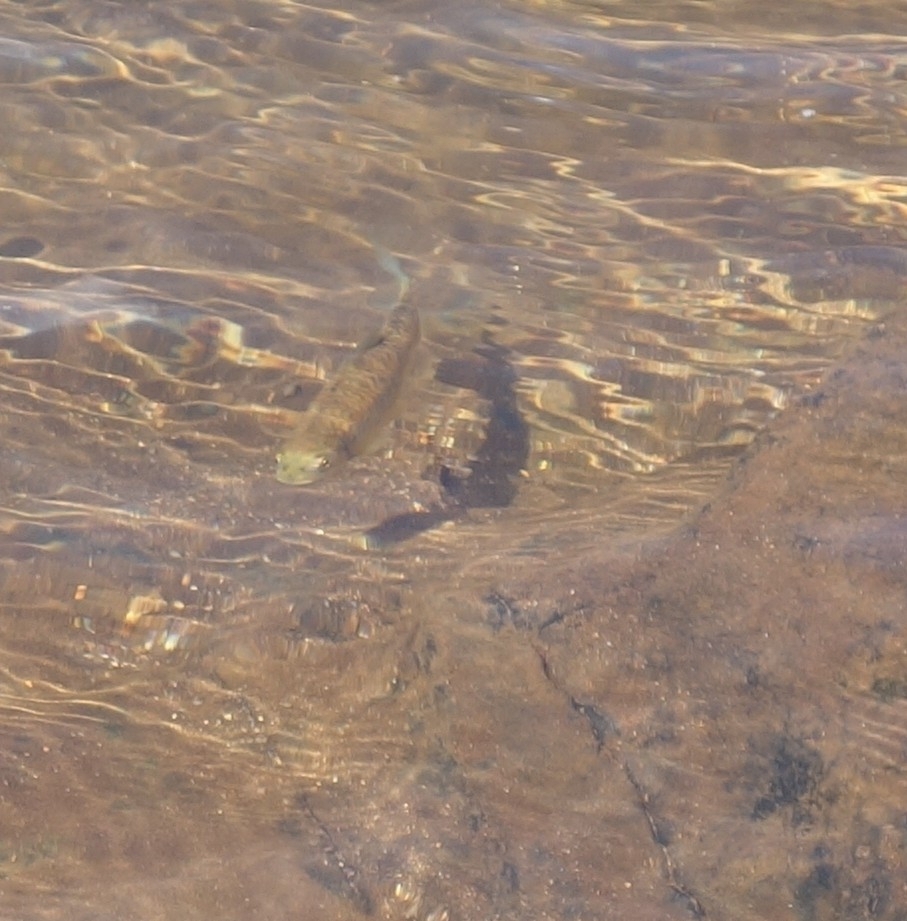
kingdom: Animalia
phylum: Chordata
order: Cypriniformes
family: Cyprinidae
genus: Labeobarbus
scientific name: Labeobarbus marequensis
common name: Largescale yellowfish
